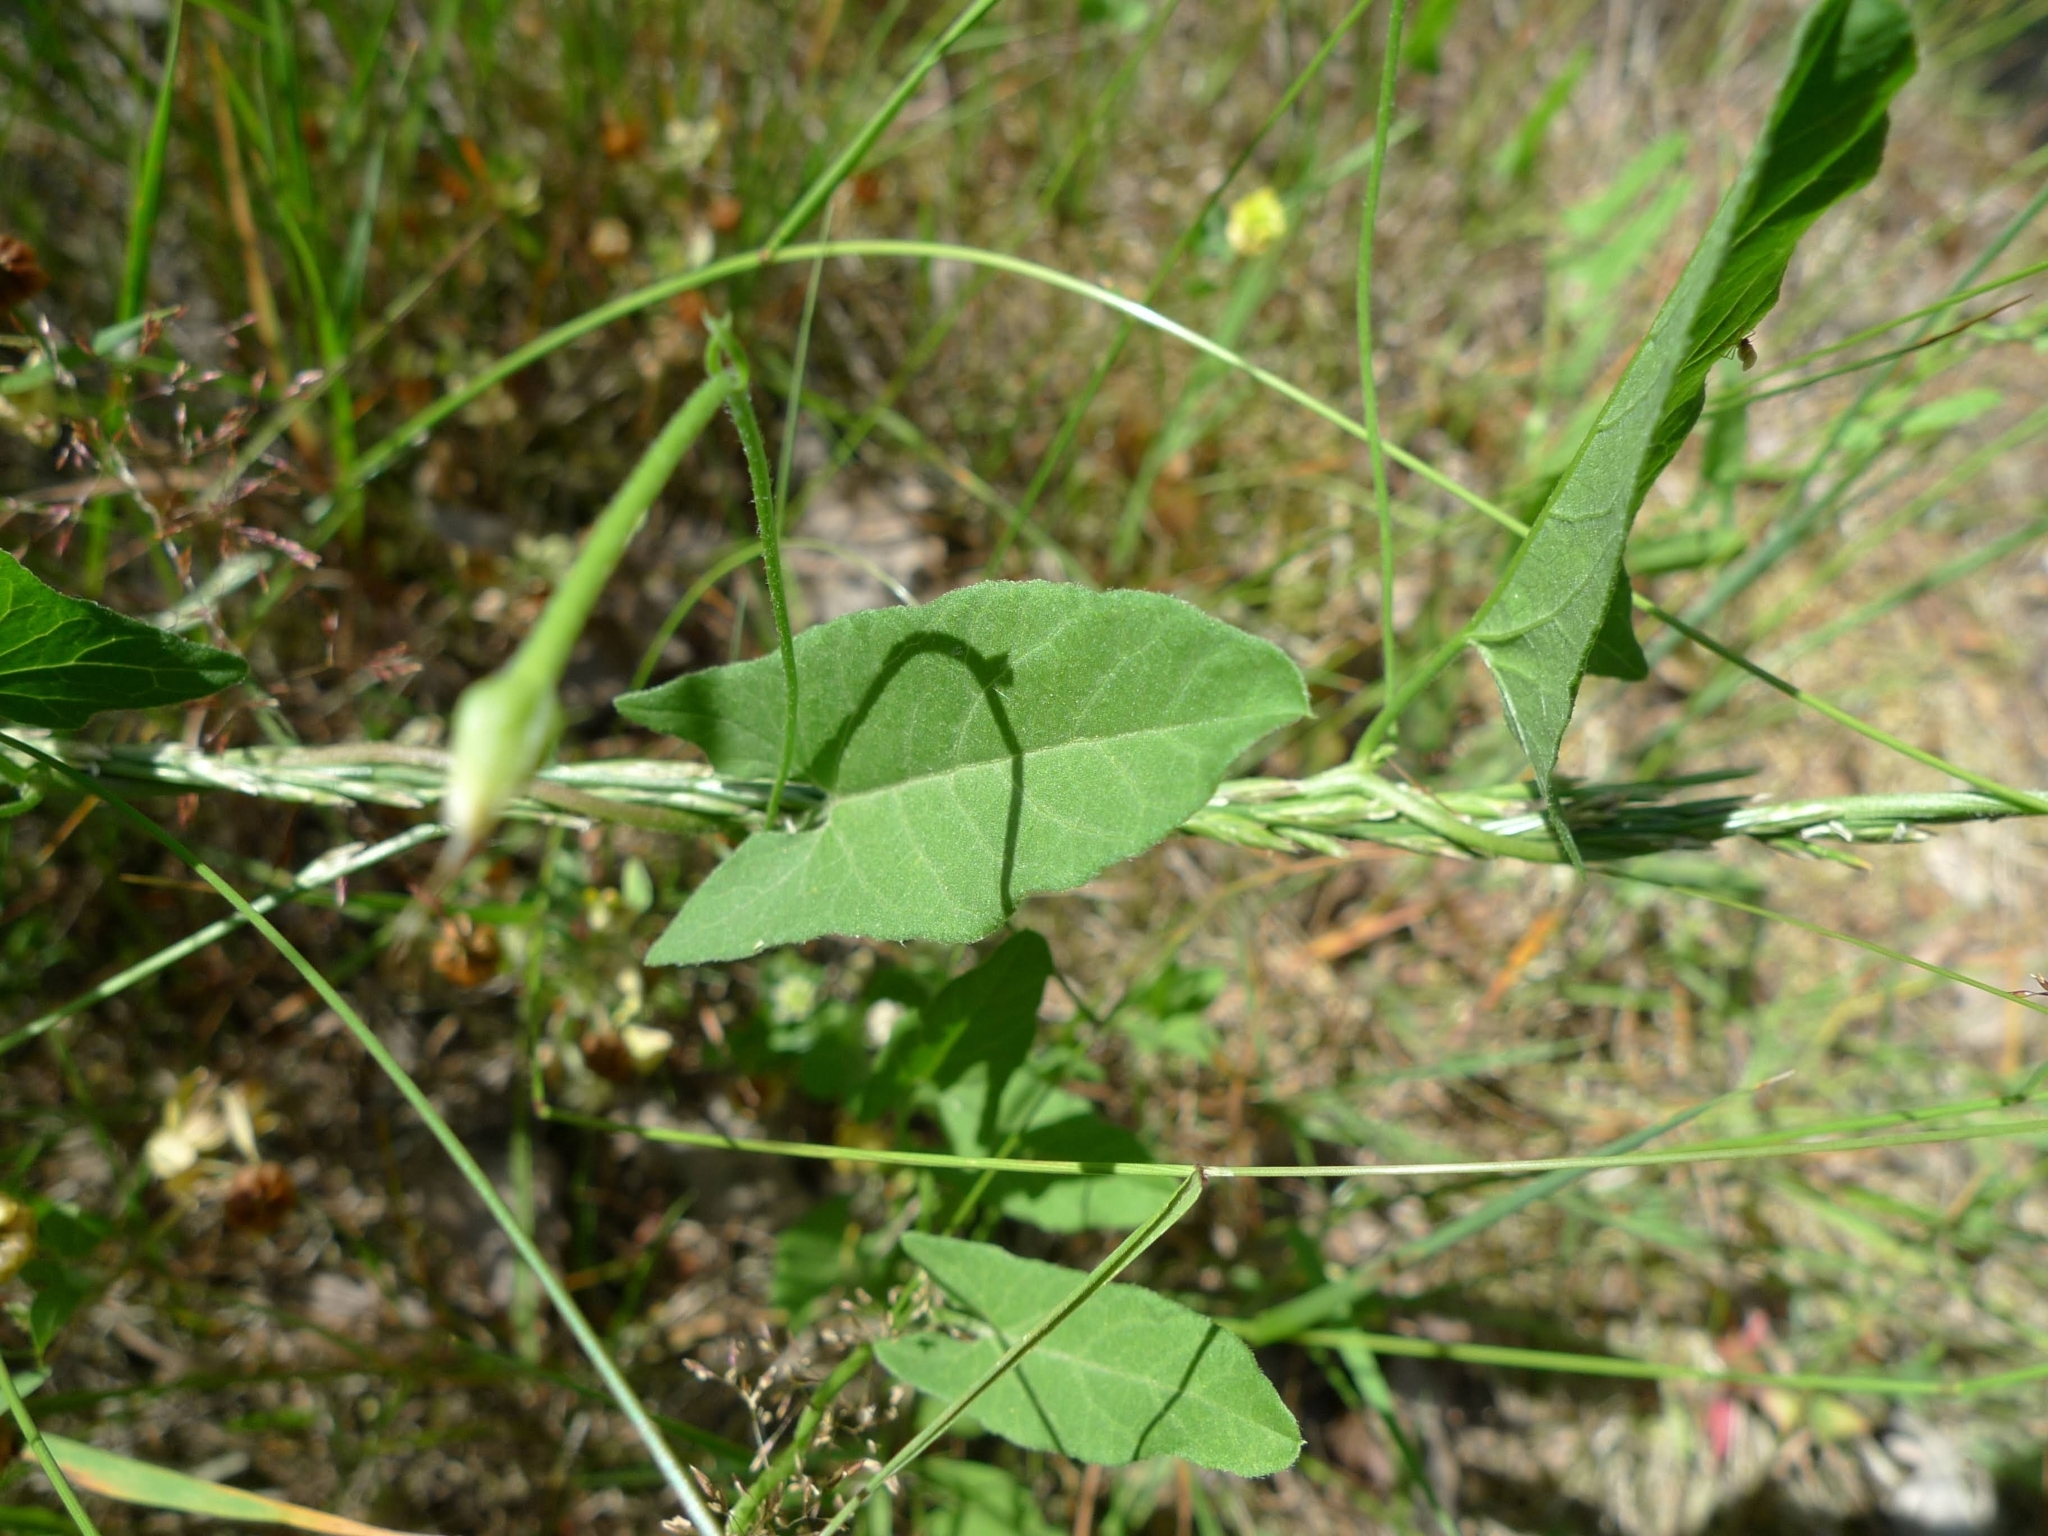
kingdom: Plantae
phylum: Tracheophyta
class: Magnoliopsida
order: Solanales
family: Convolvulaceae
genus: Convolvulus
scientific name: Convolvulus arvensis
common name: Field bindweed
